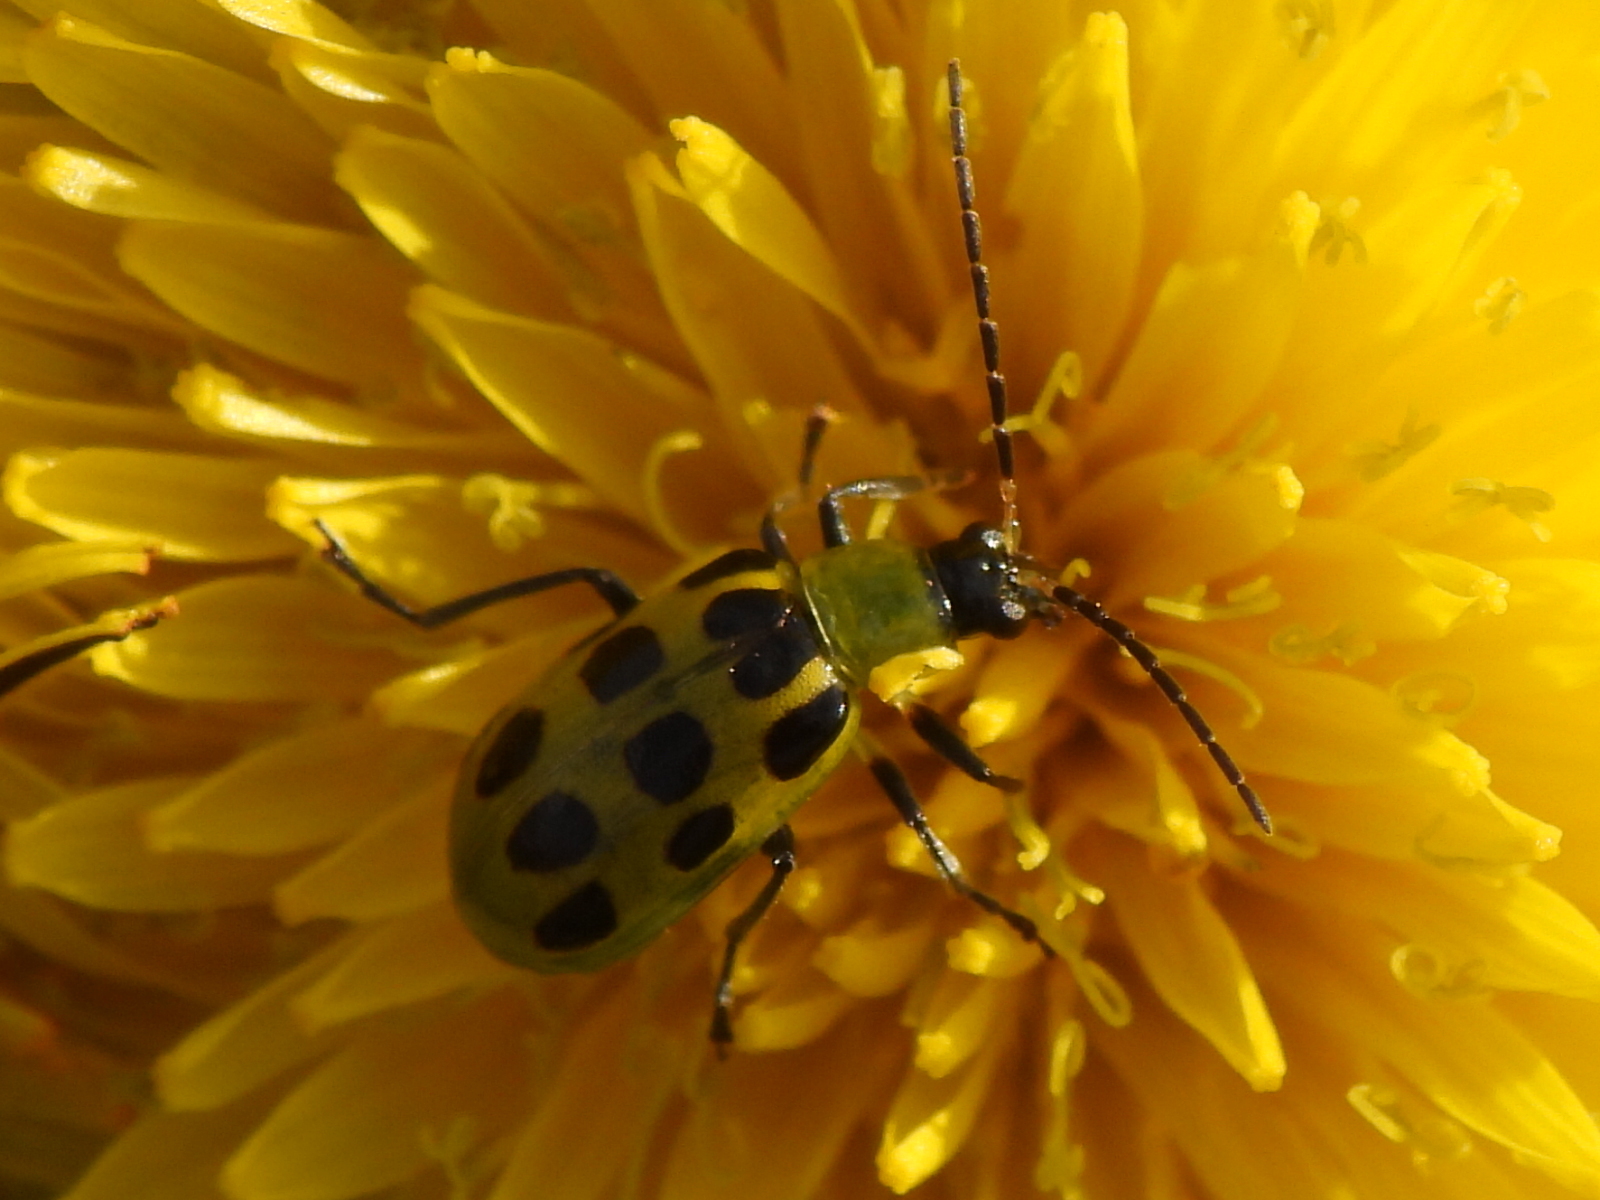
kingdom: Animalia
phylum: Arthropoda
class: Insecta
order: Coleoptera
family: Chrysomelidae
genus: Diabrotica
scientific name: Diabrotica undecimpunctata
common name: Spotted cucumber beetle
